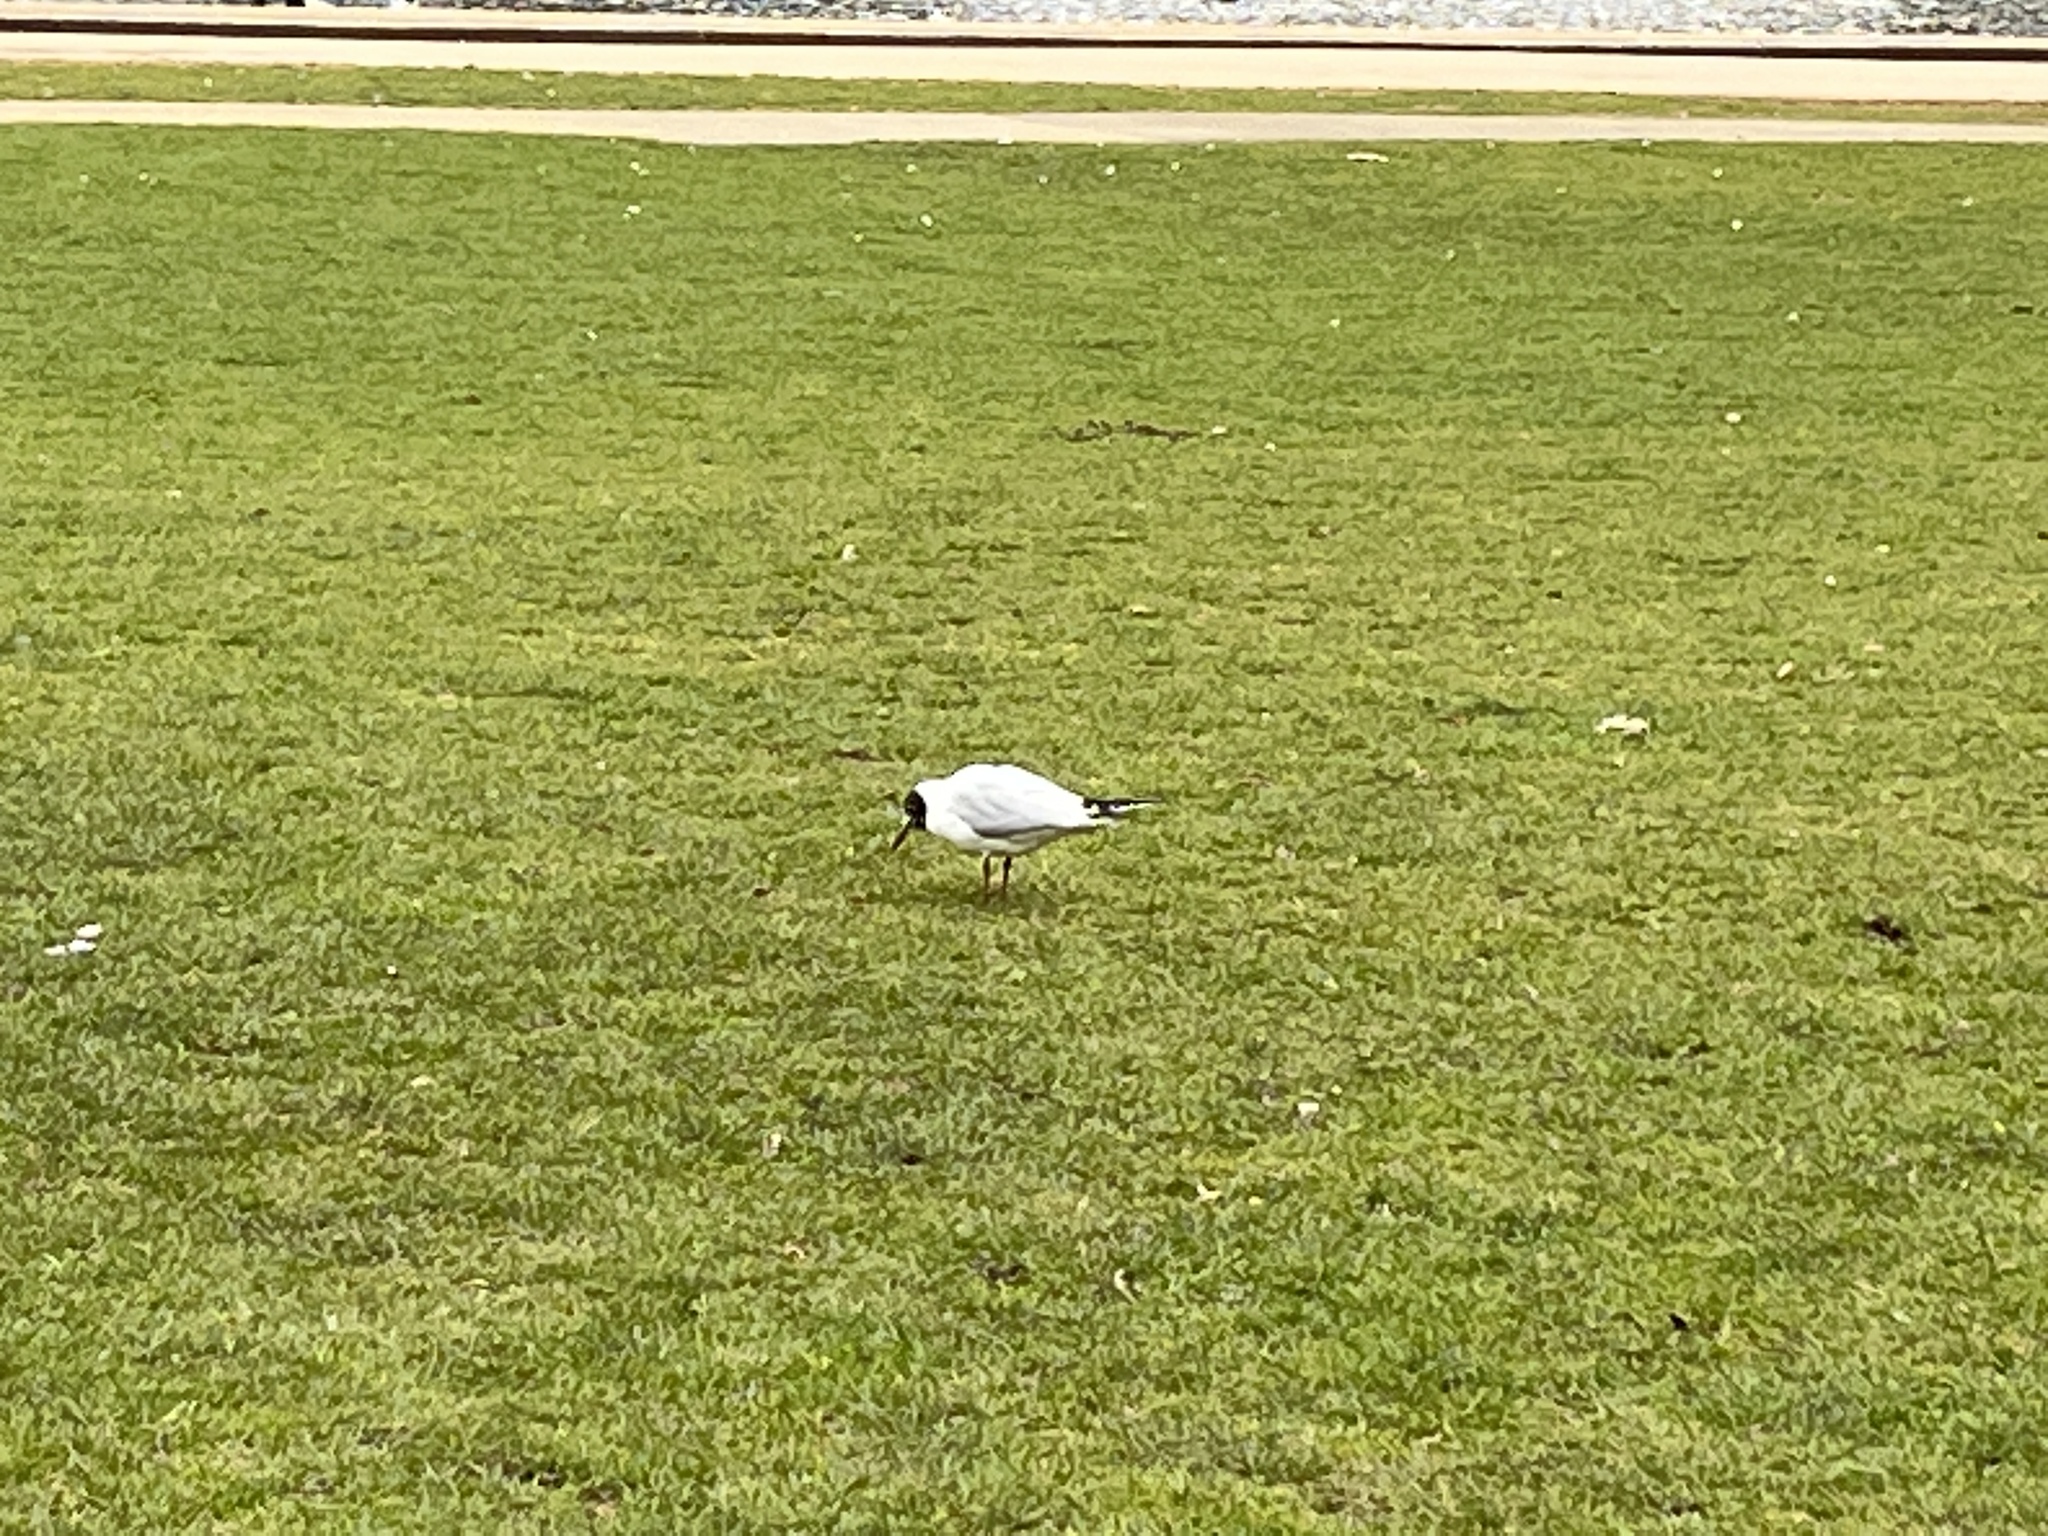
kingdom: Animalia
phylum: Chordata
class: Aves
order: Charadriiformes
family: Laridae
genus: Chroicocephalus
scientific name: Chroicocephalus ridibundus
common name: Black-headed gull
